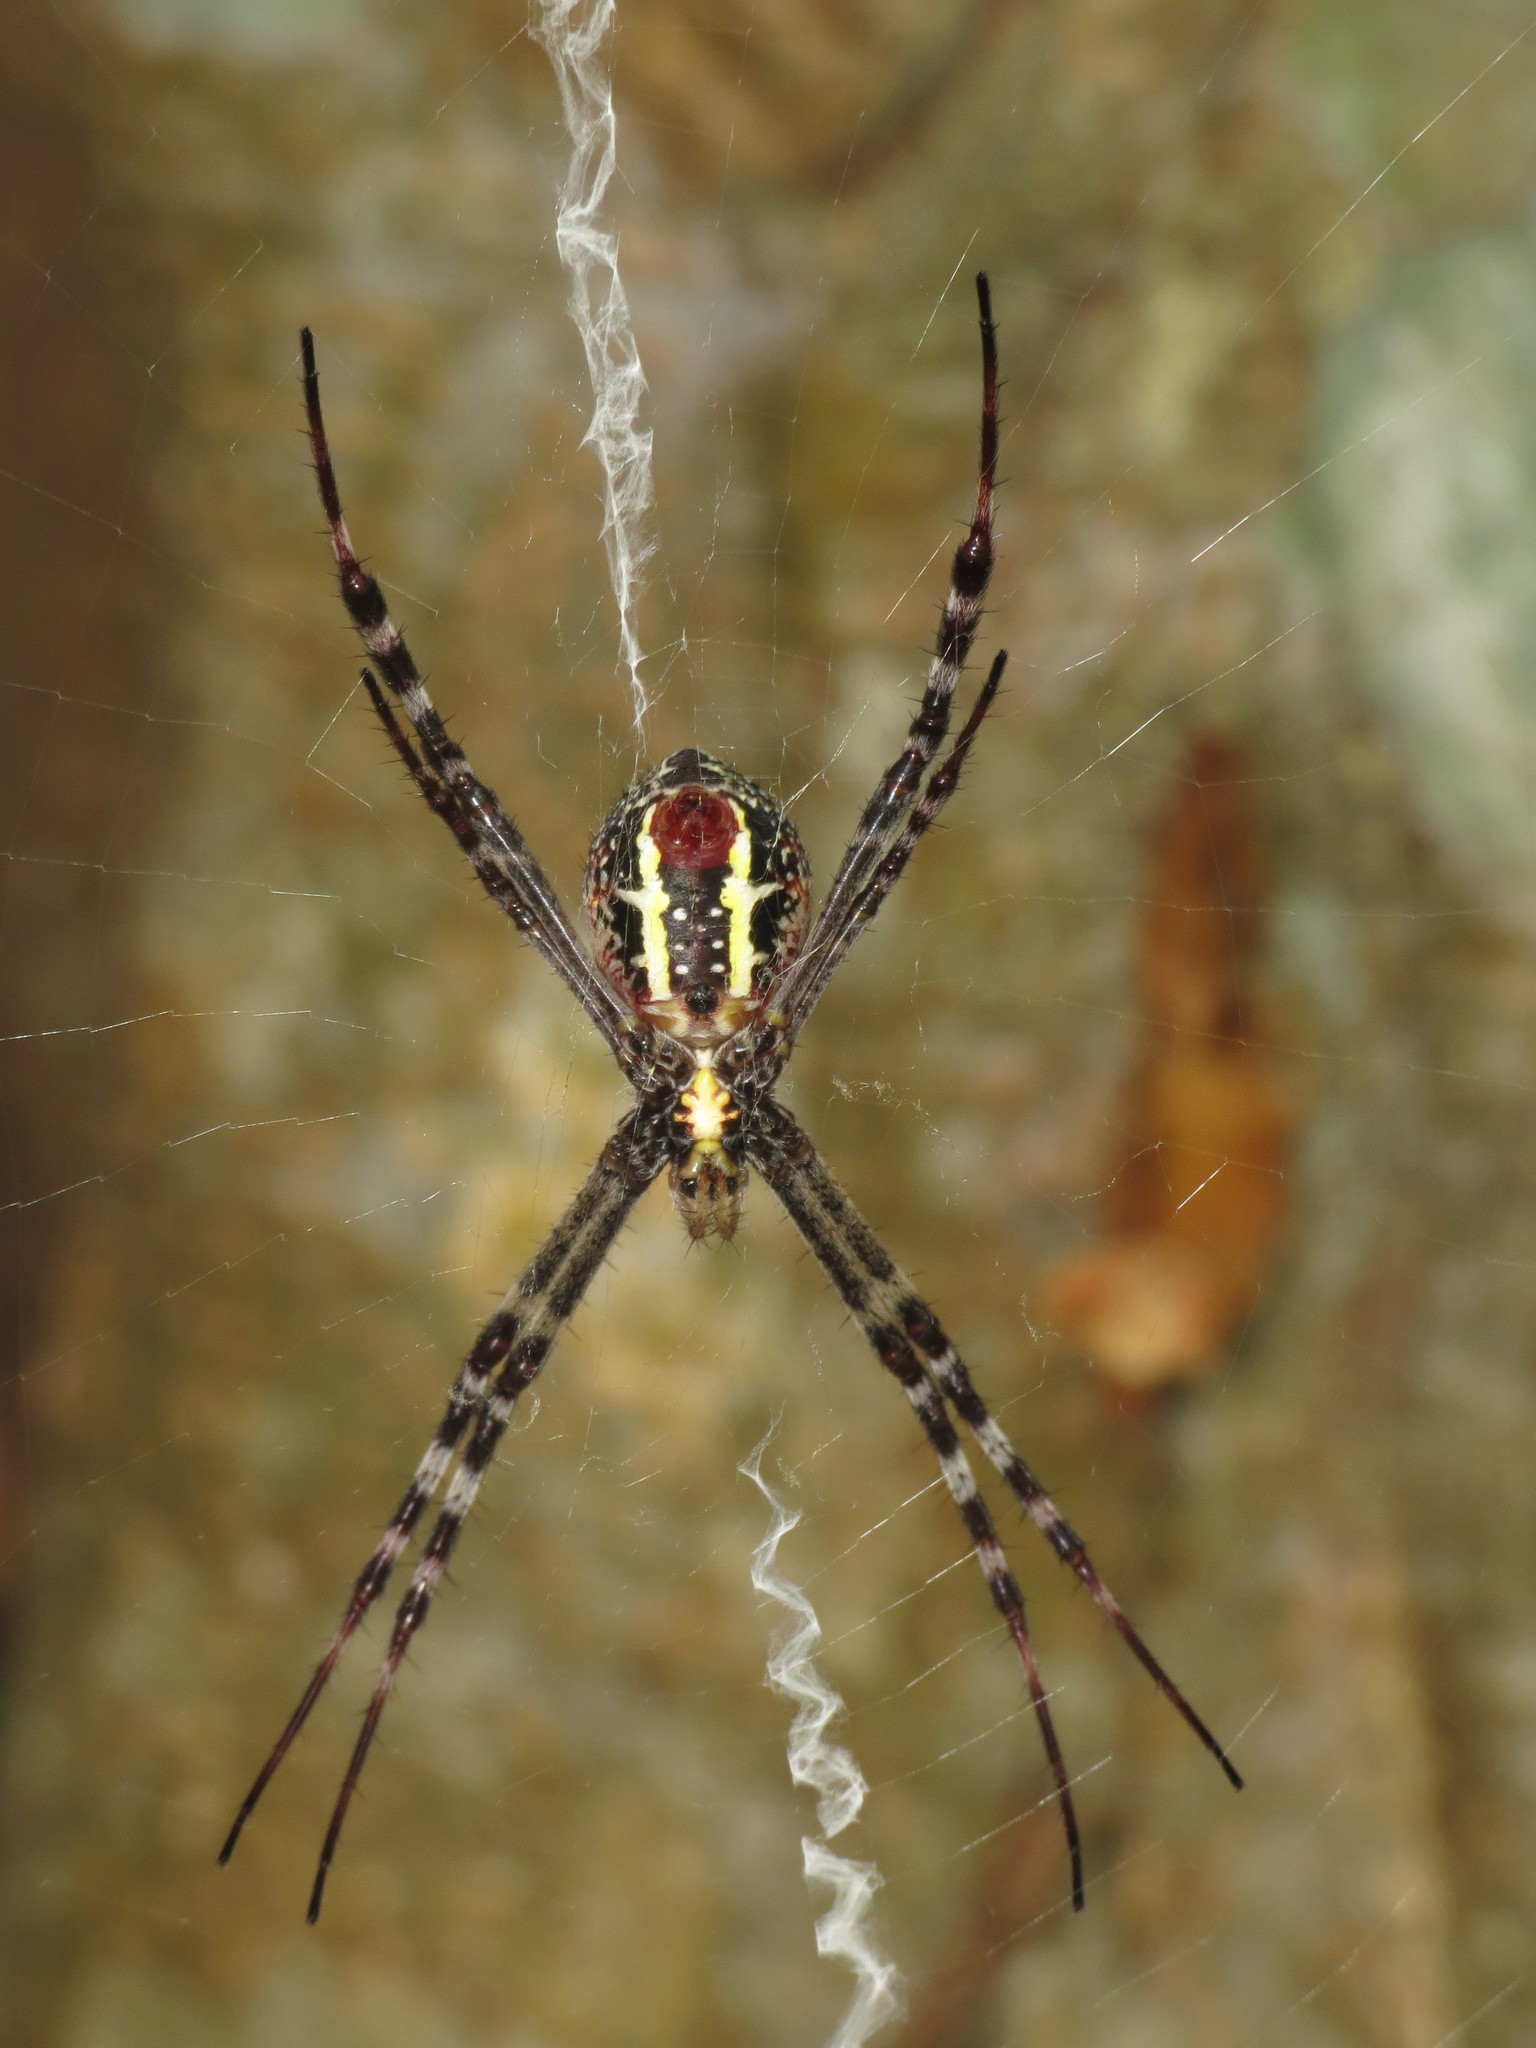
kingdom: Animalia
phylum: Arthropoda
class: Arachnida
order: Araneae
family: Araneidae
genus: Argiope
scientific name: Argiope picta
